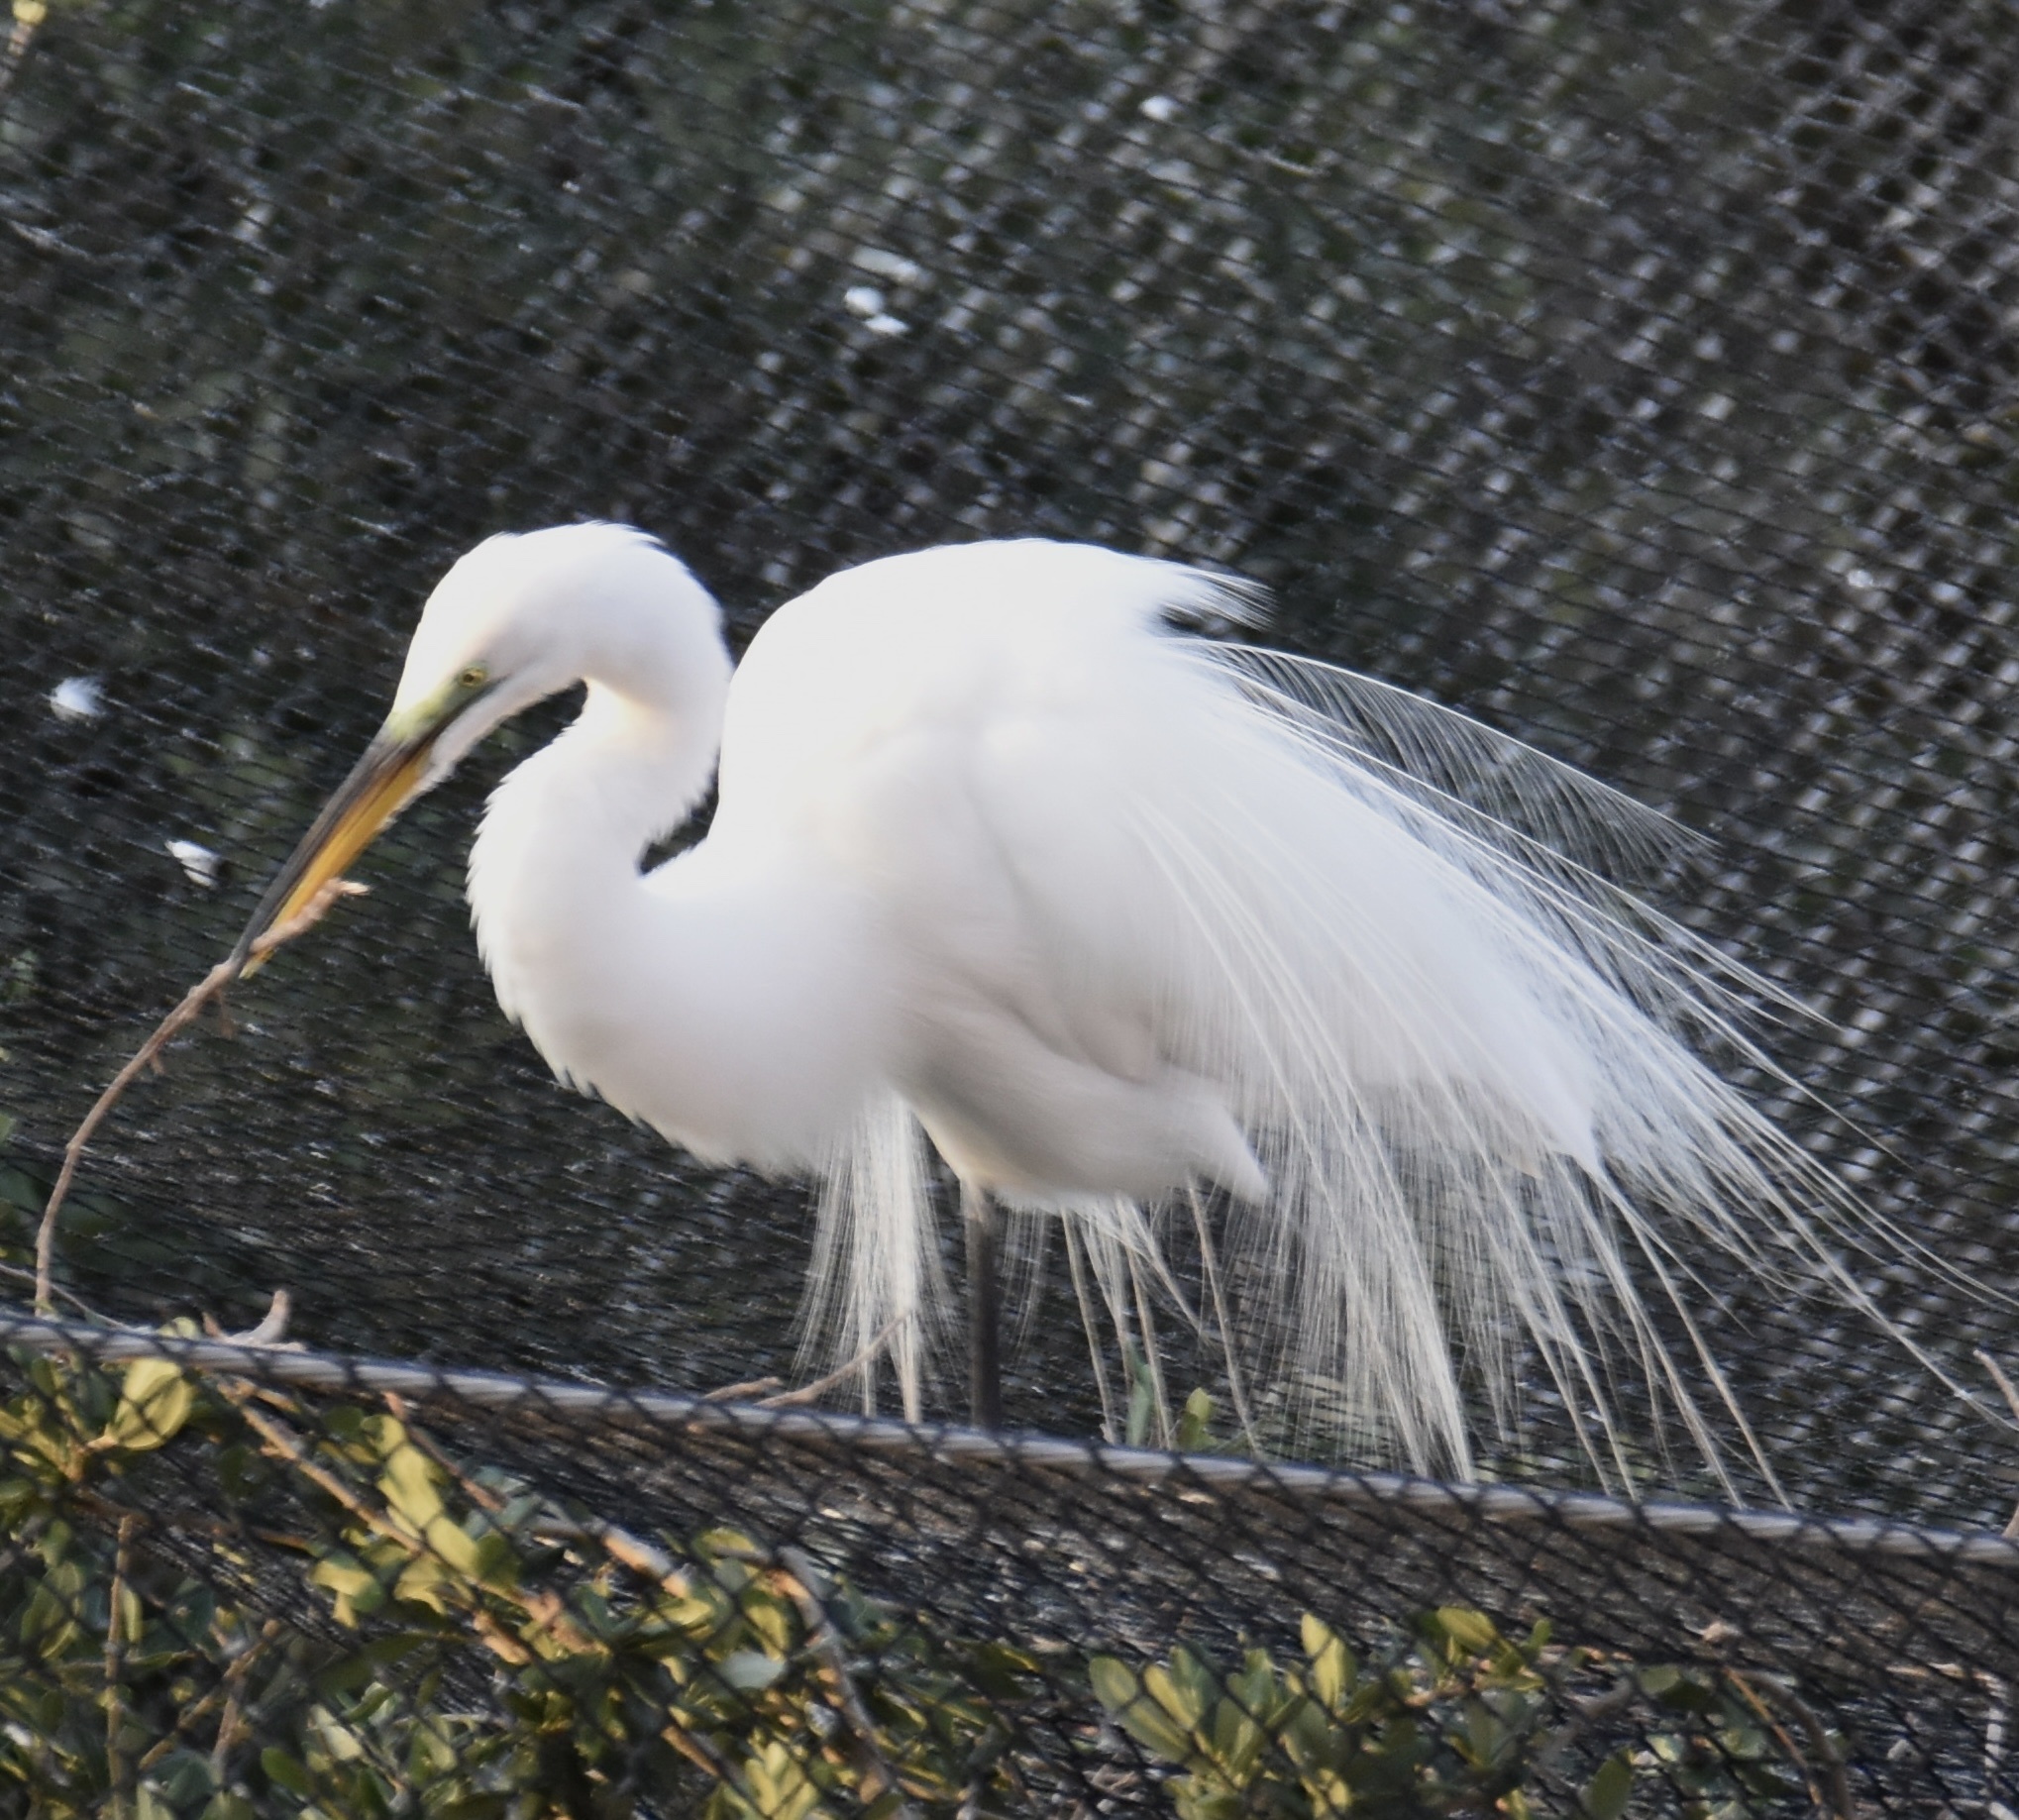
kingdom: Animalia
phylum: Chordata
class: Aves
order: Pelecaniformes
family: Ardeidae
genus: Ardea
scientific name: Ardea alba
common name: Great egret
